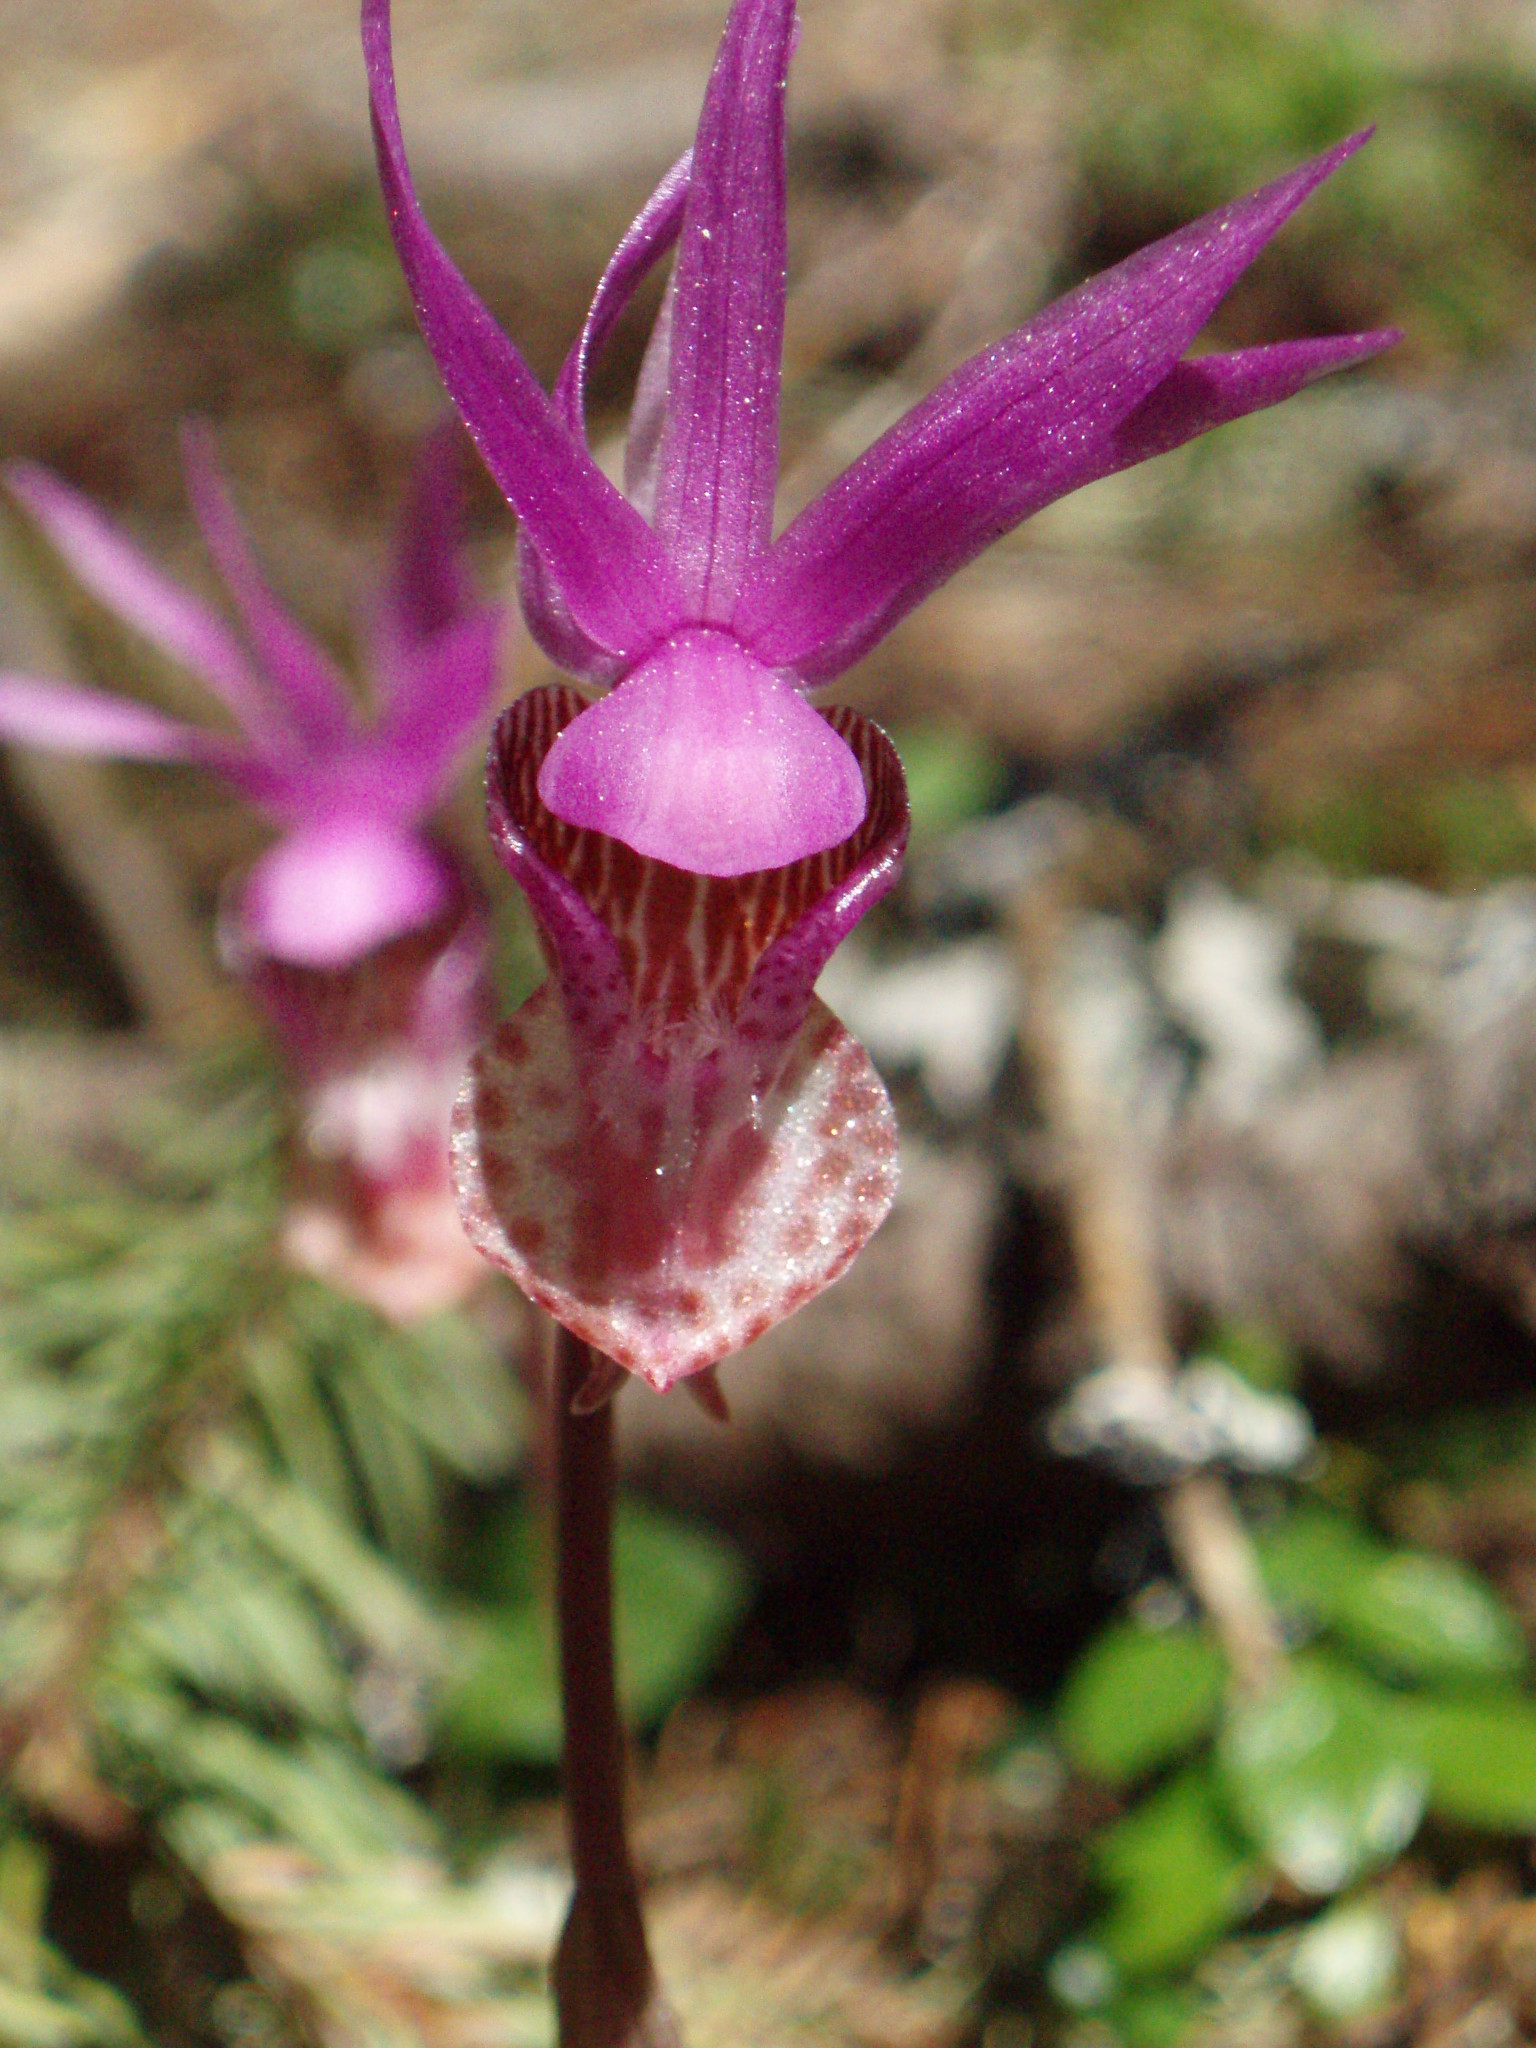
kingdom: Plantae
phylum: Tracheophyta
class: Liliopsida
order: Asparagales
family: Orchidaceae
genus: Calypso
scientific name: Calypso bulbosa
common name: Calypso
